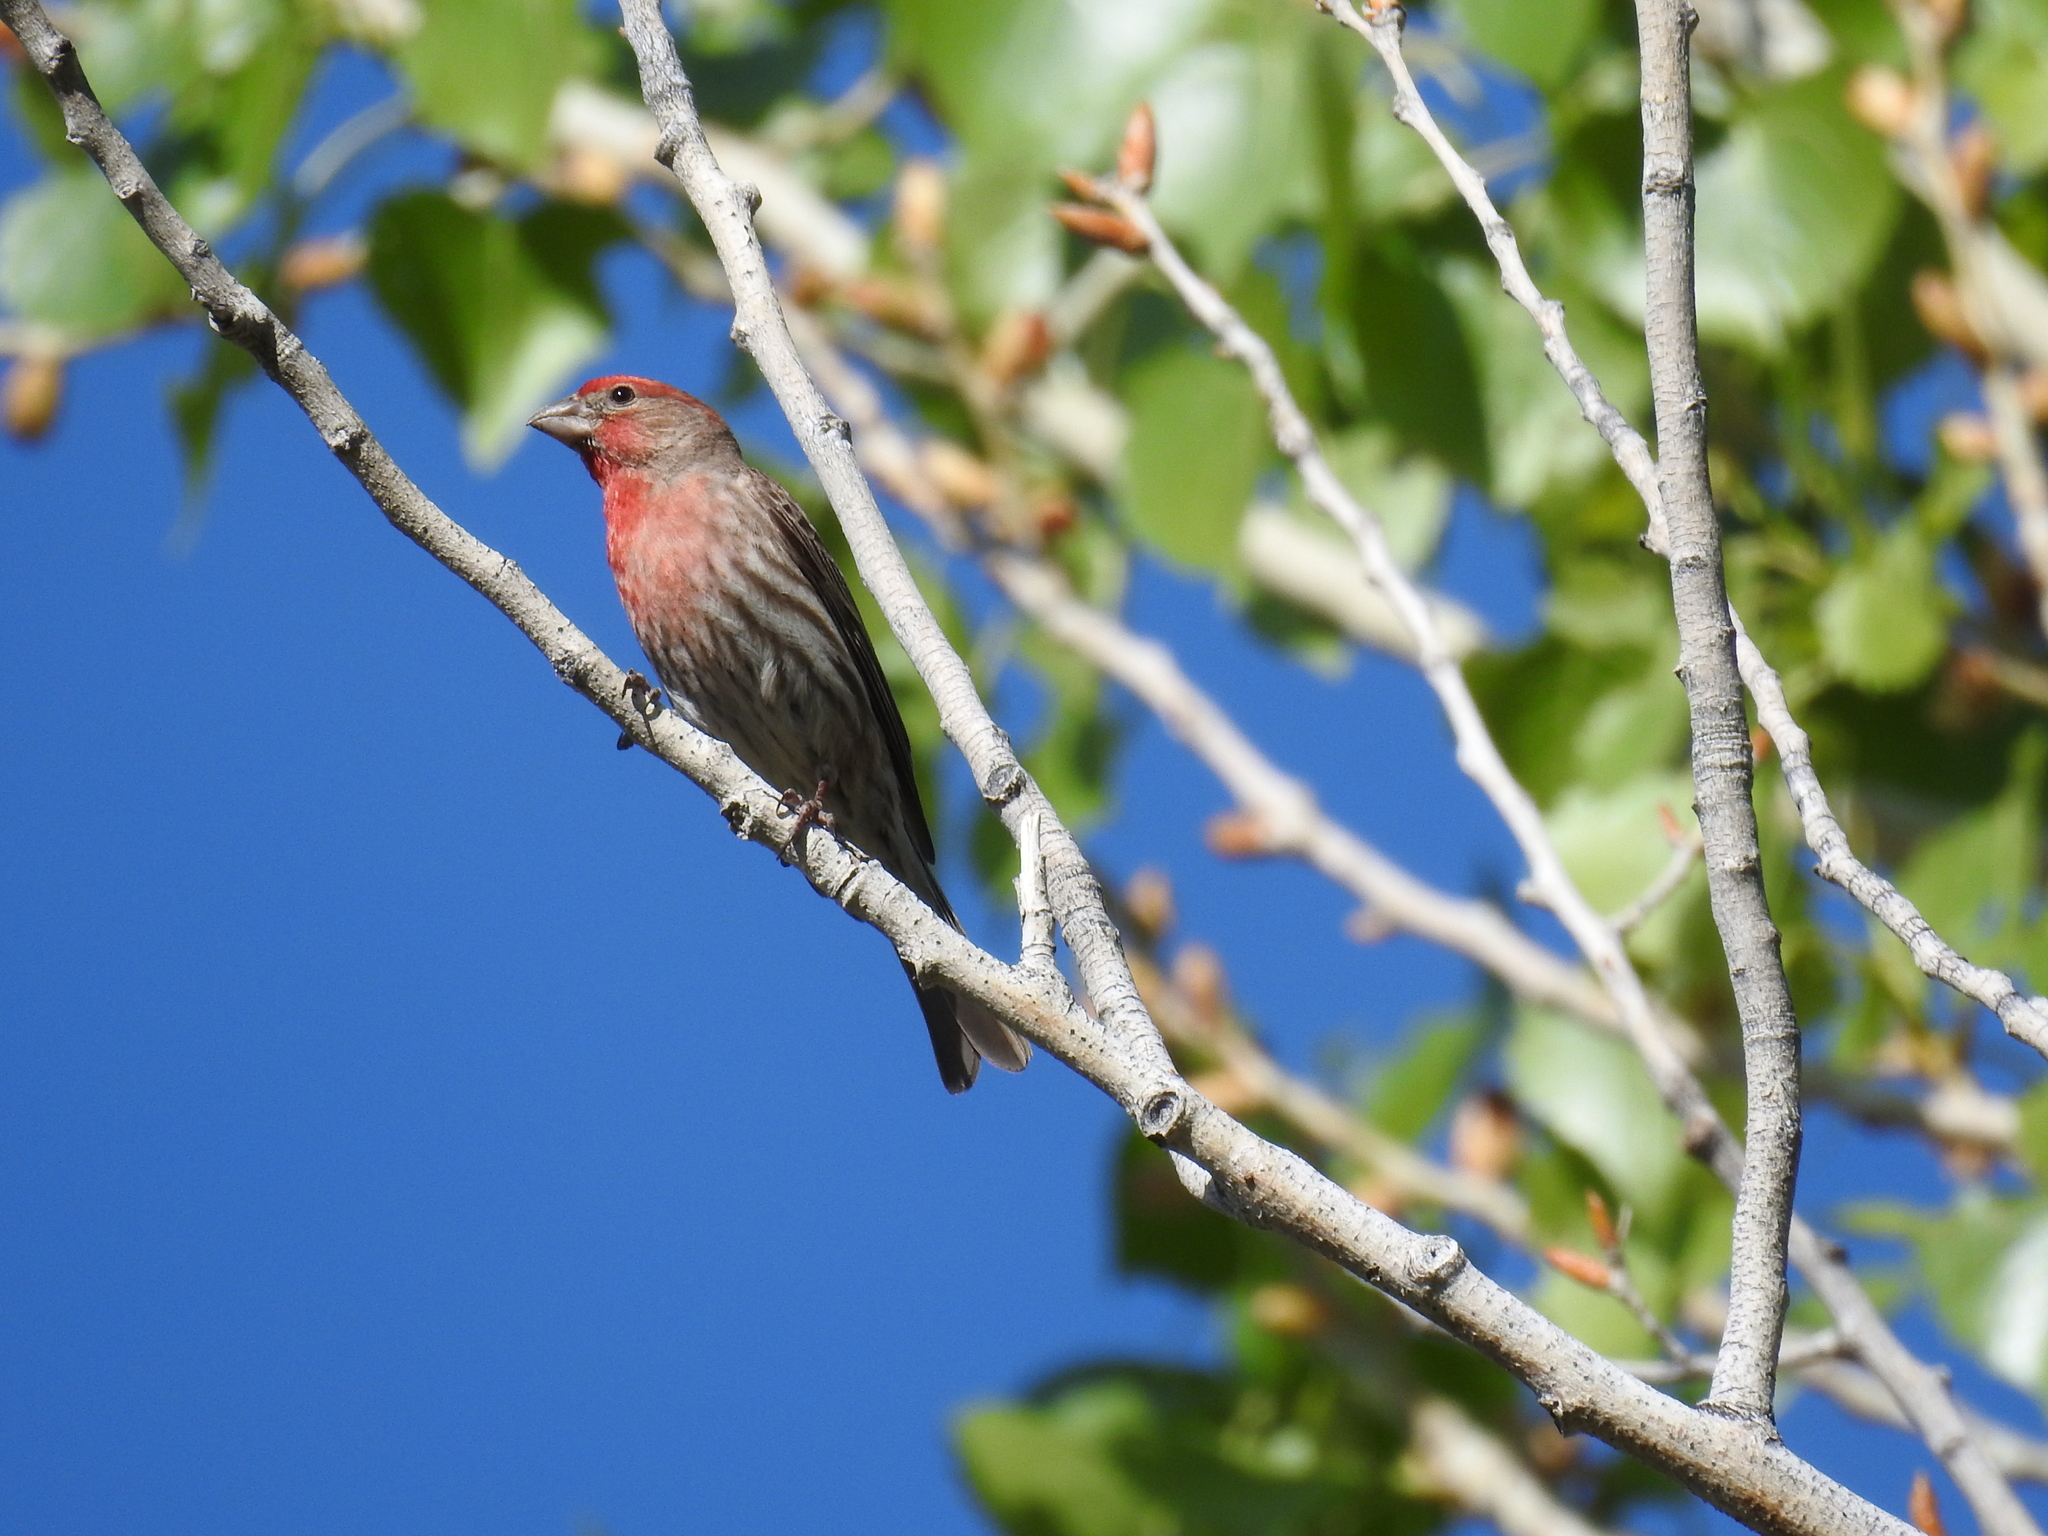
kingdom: Animalia
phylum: Chordata
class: Aves
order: Passeriformes
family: Fringillidae
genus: Haemorhous
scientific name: Haemorhous mexicanus
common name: House finch
